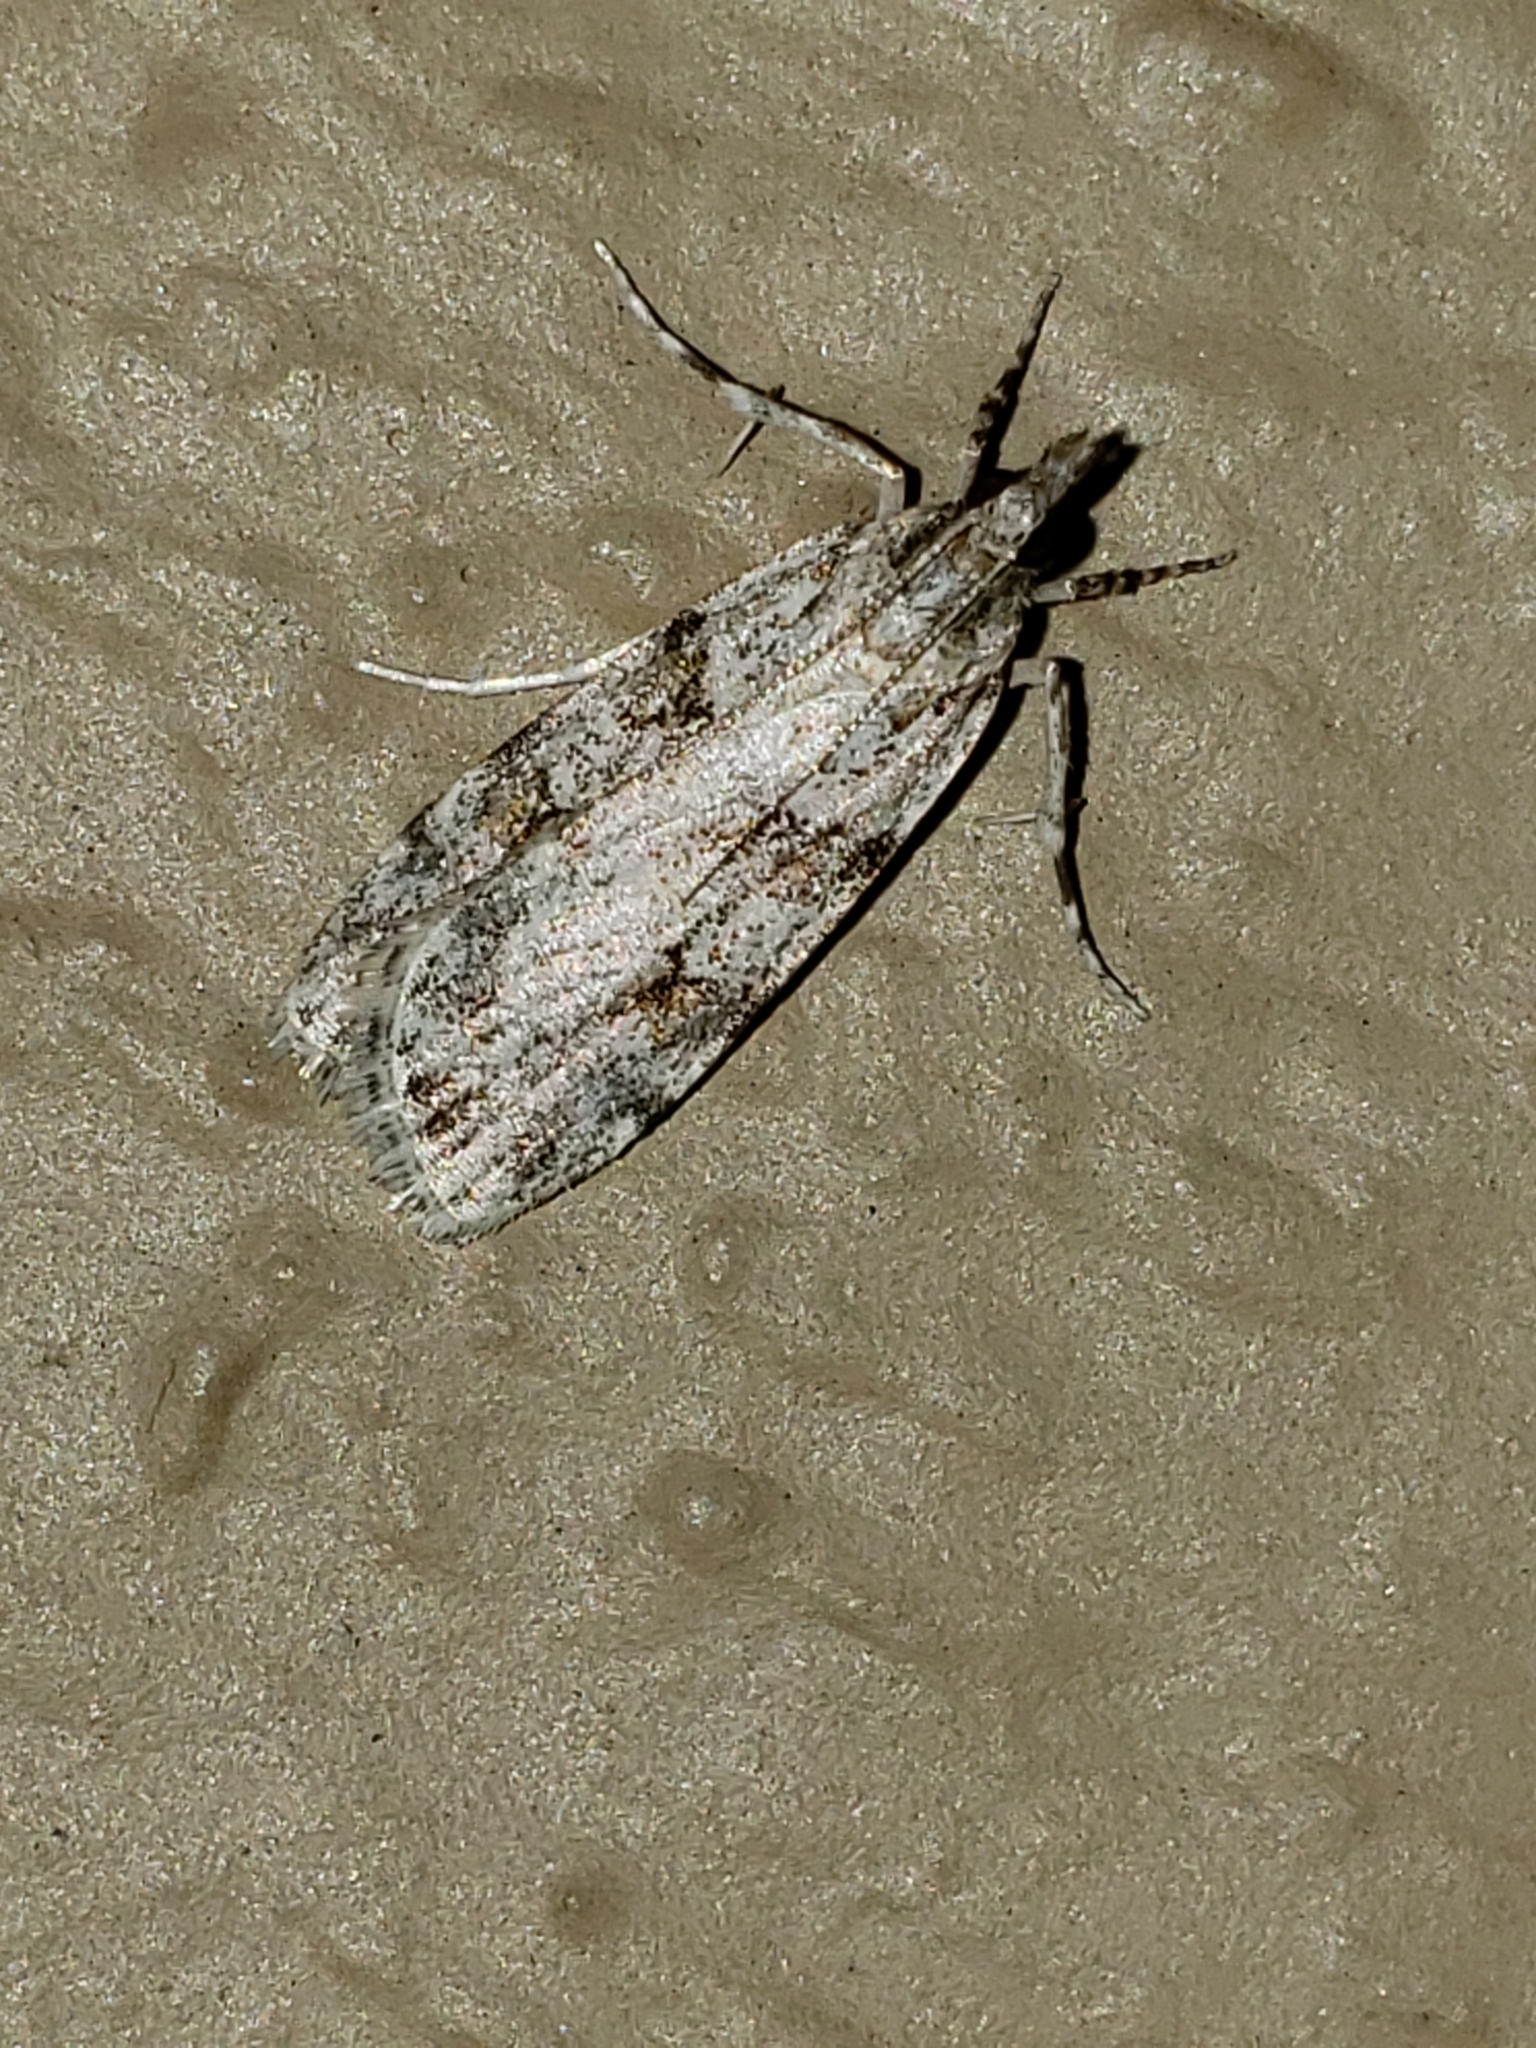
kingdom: Animalia
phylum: Arthropoda
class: Insecta
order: Lepidoptera
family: Crambidae
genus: Scoparia
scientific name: Scoparia biplagialis
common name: Double-striped scoparia moth
